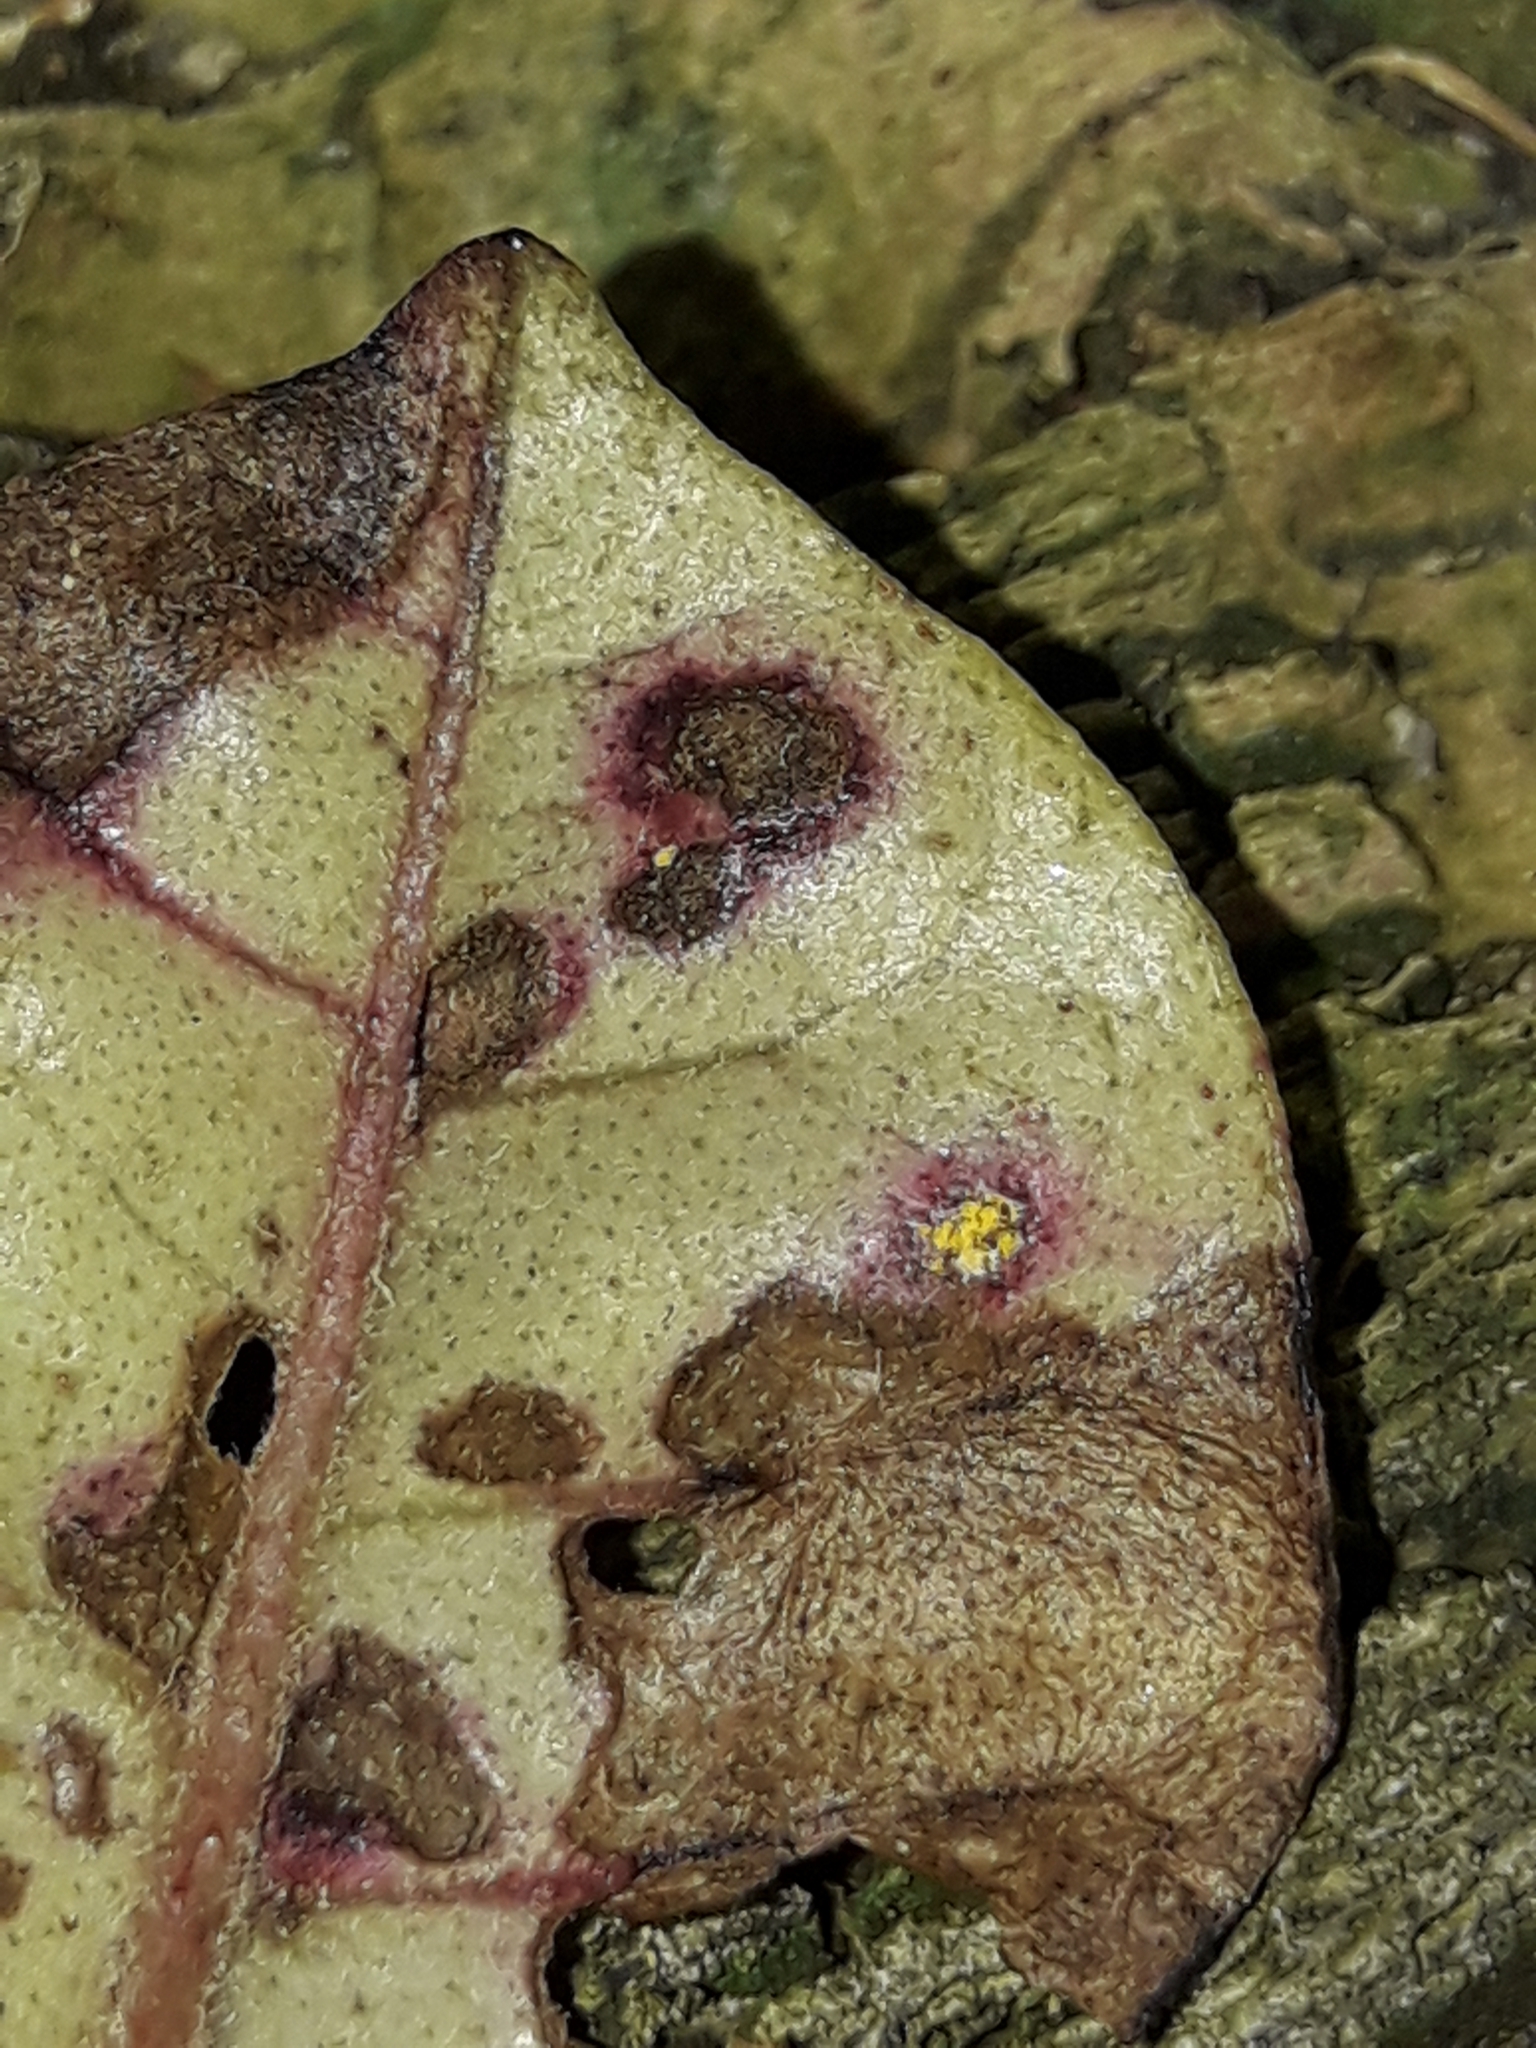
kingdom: Fungi
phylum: Basidiomycota
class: Pucciniomycetes
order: Pucciniales
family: Sphaerophragmiaceae
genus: Austropuccinia
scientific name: Austropuccinia psidii
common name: Myrtle rust
